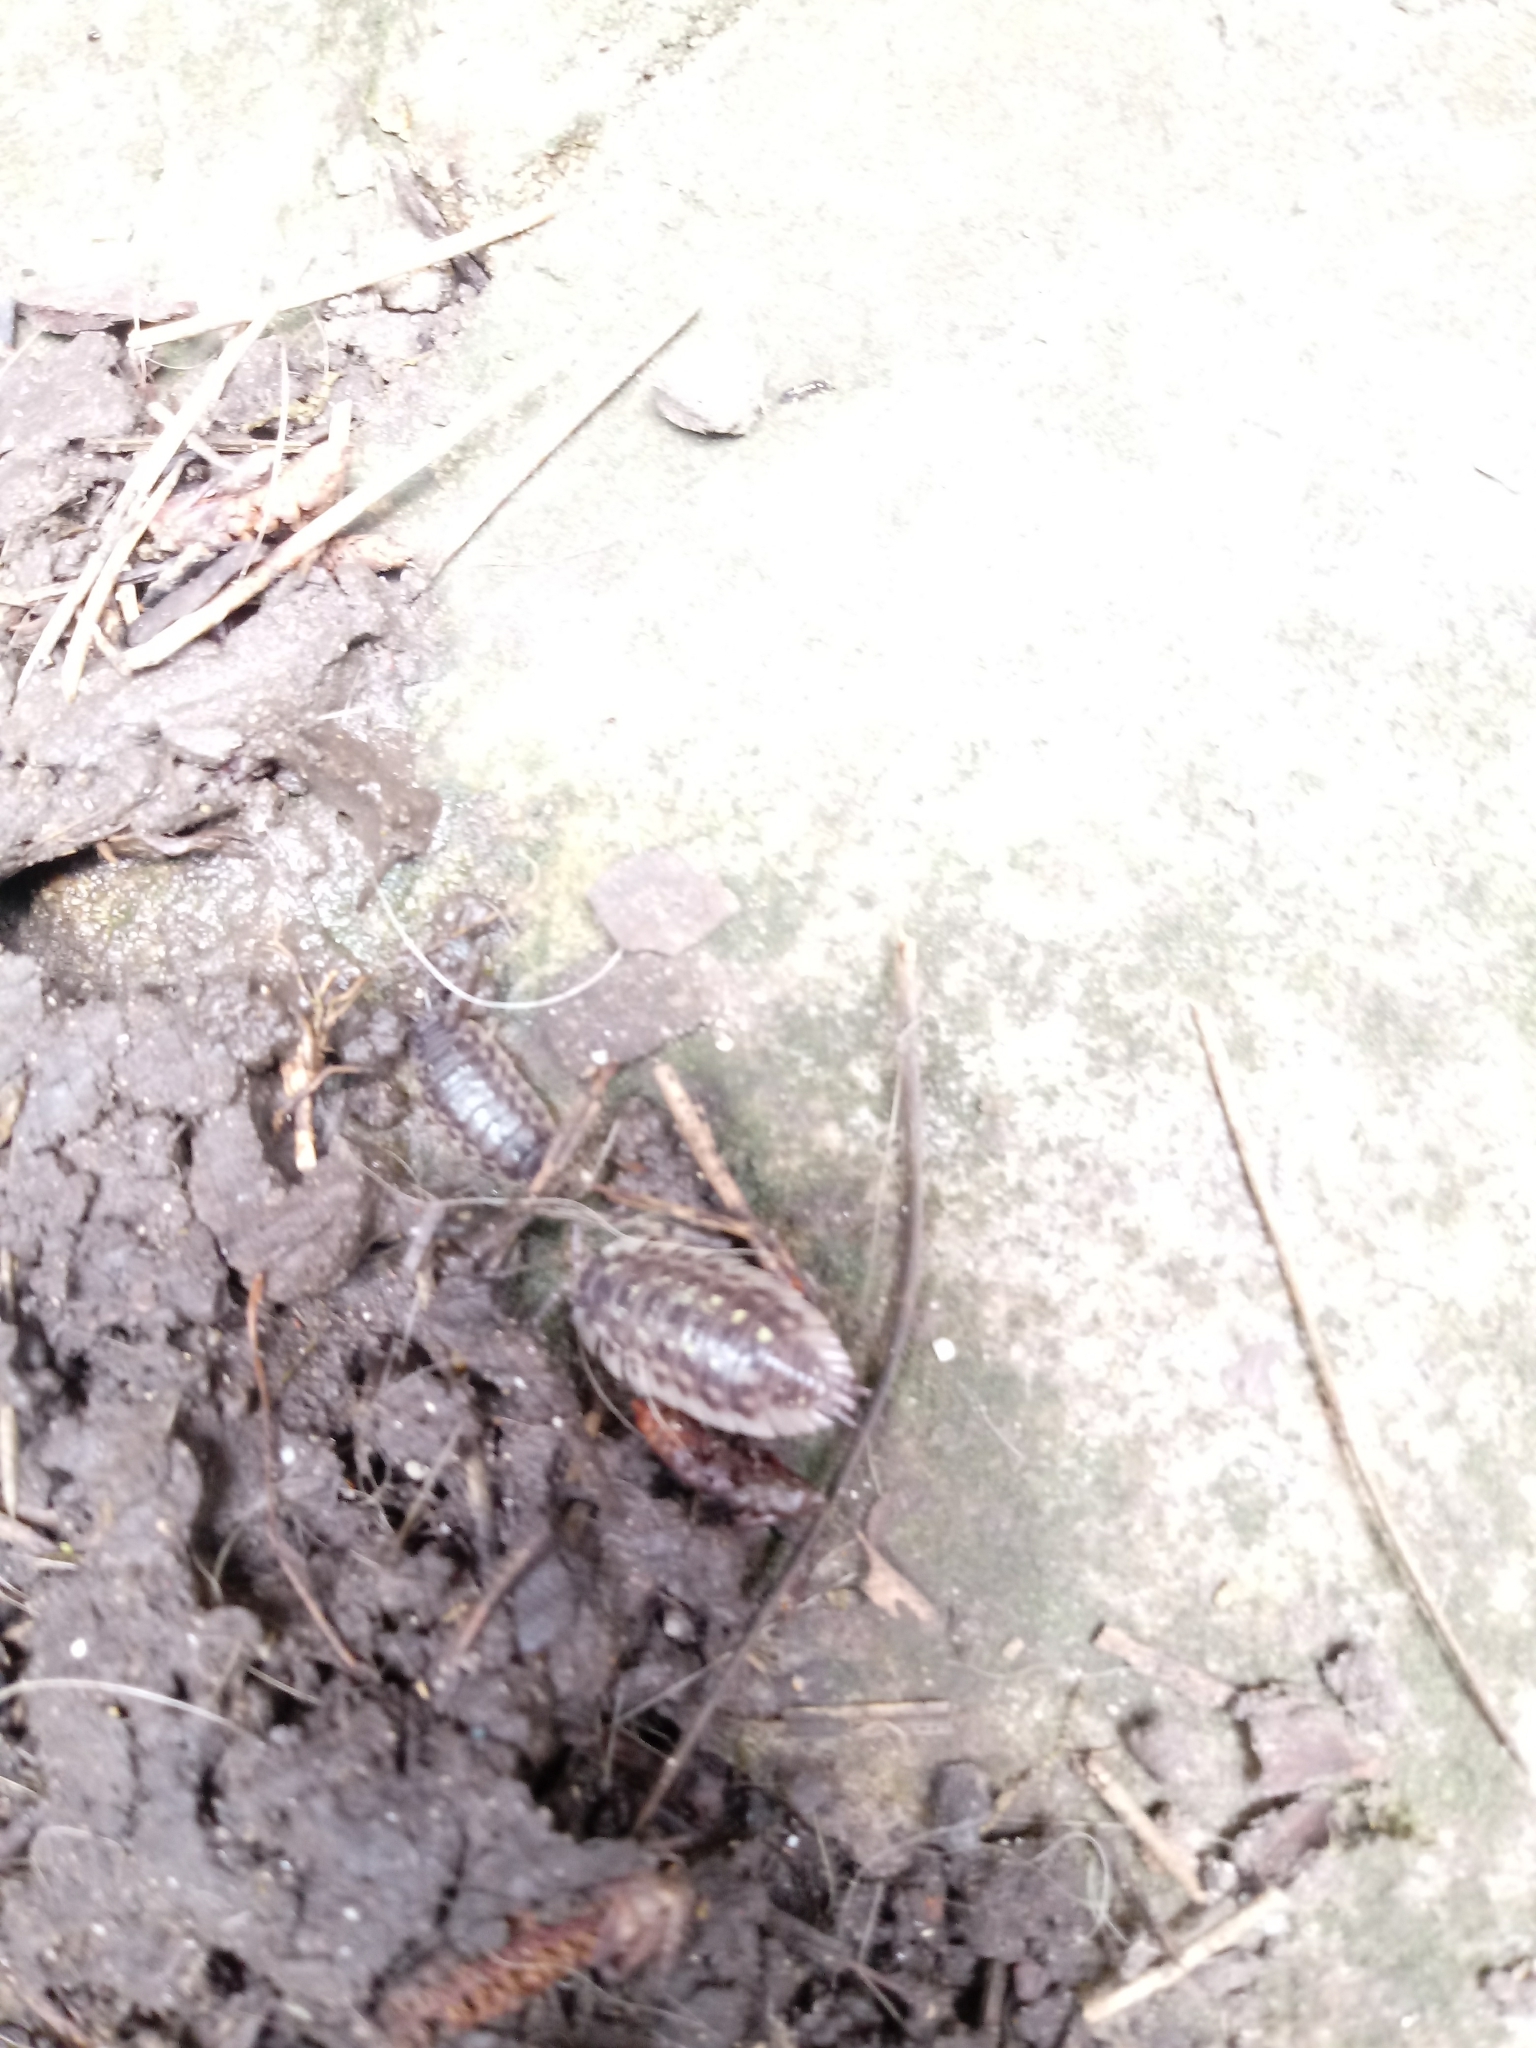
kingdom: Animalia
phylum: Arthropoda
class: Malacostraca
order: Isopoda
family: Oniscidae
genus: Oniscus
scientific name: Oniscus asellus
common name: Common shiny woodlouse
